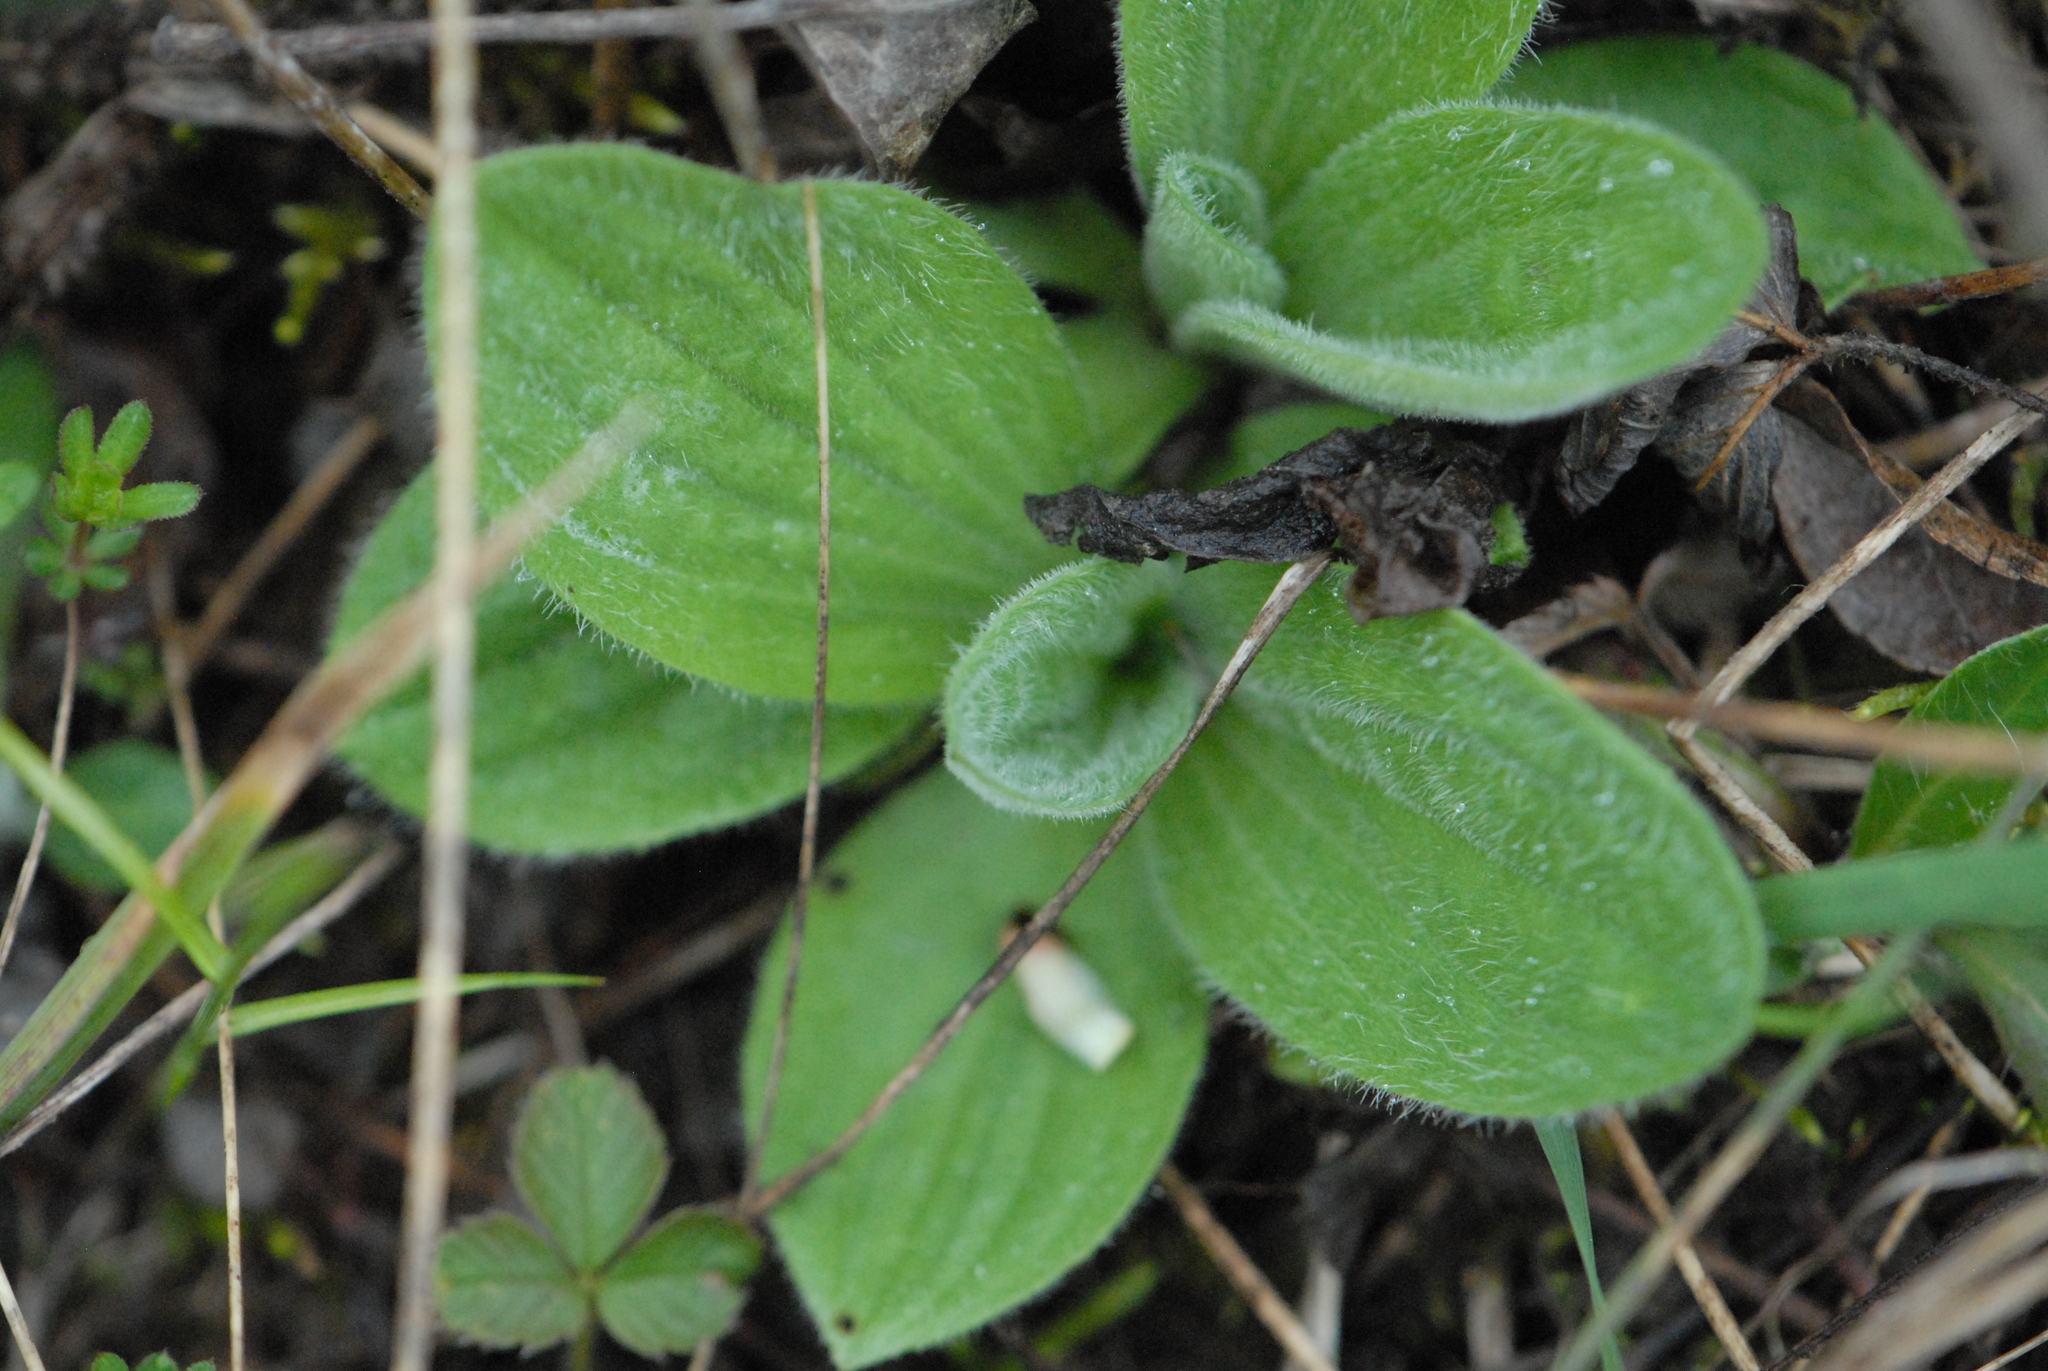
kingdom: Plantae
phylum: Tracheophyta
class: Magnoliopsida
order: Lamiales
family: Plantaginaceae
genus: Plantago
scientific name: Plantago media
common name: Hoary plantain
